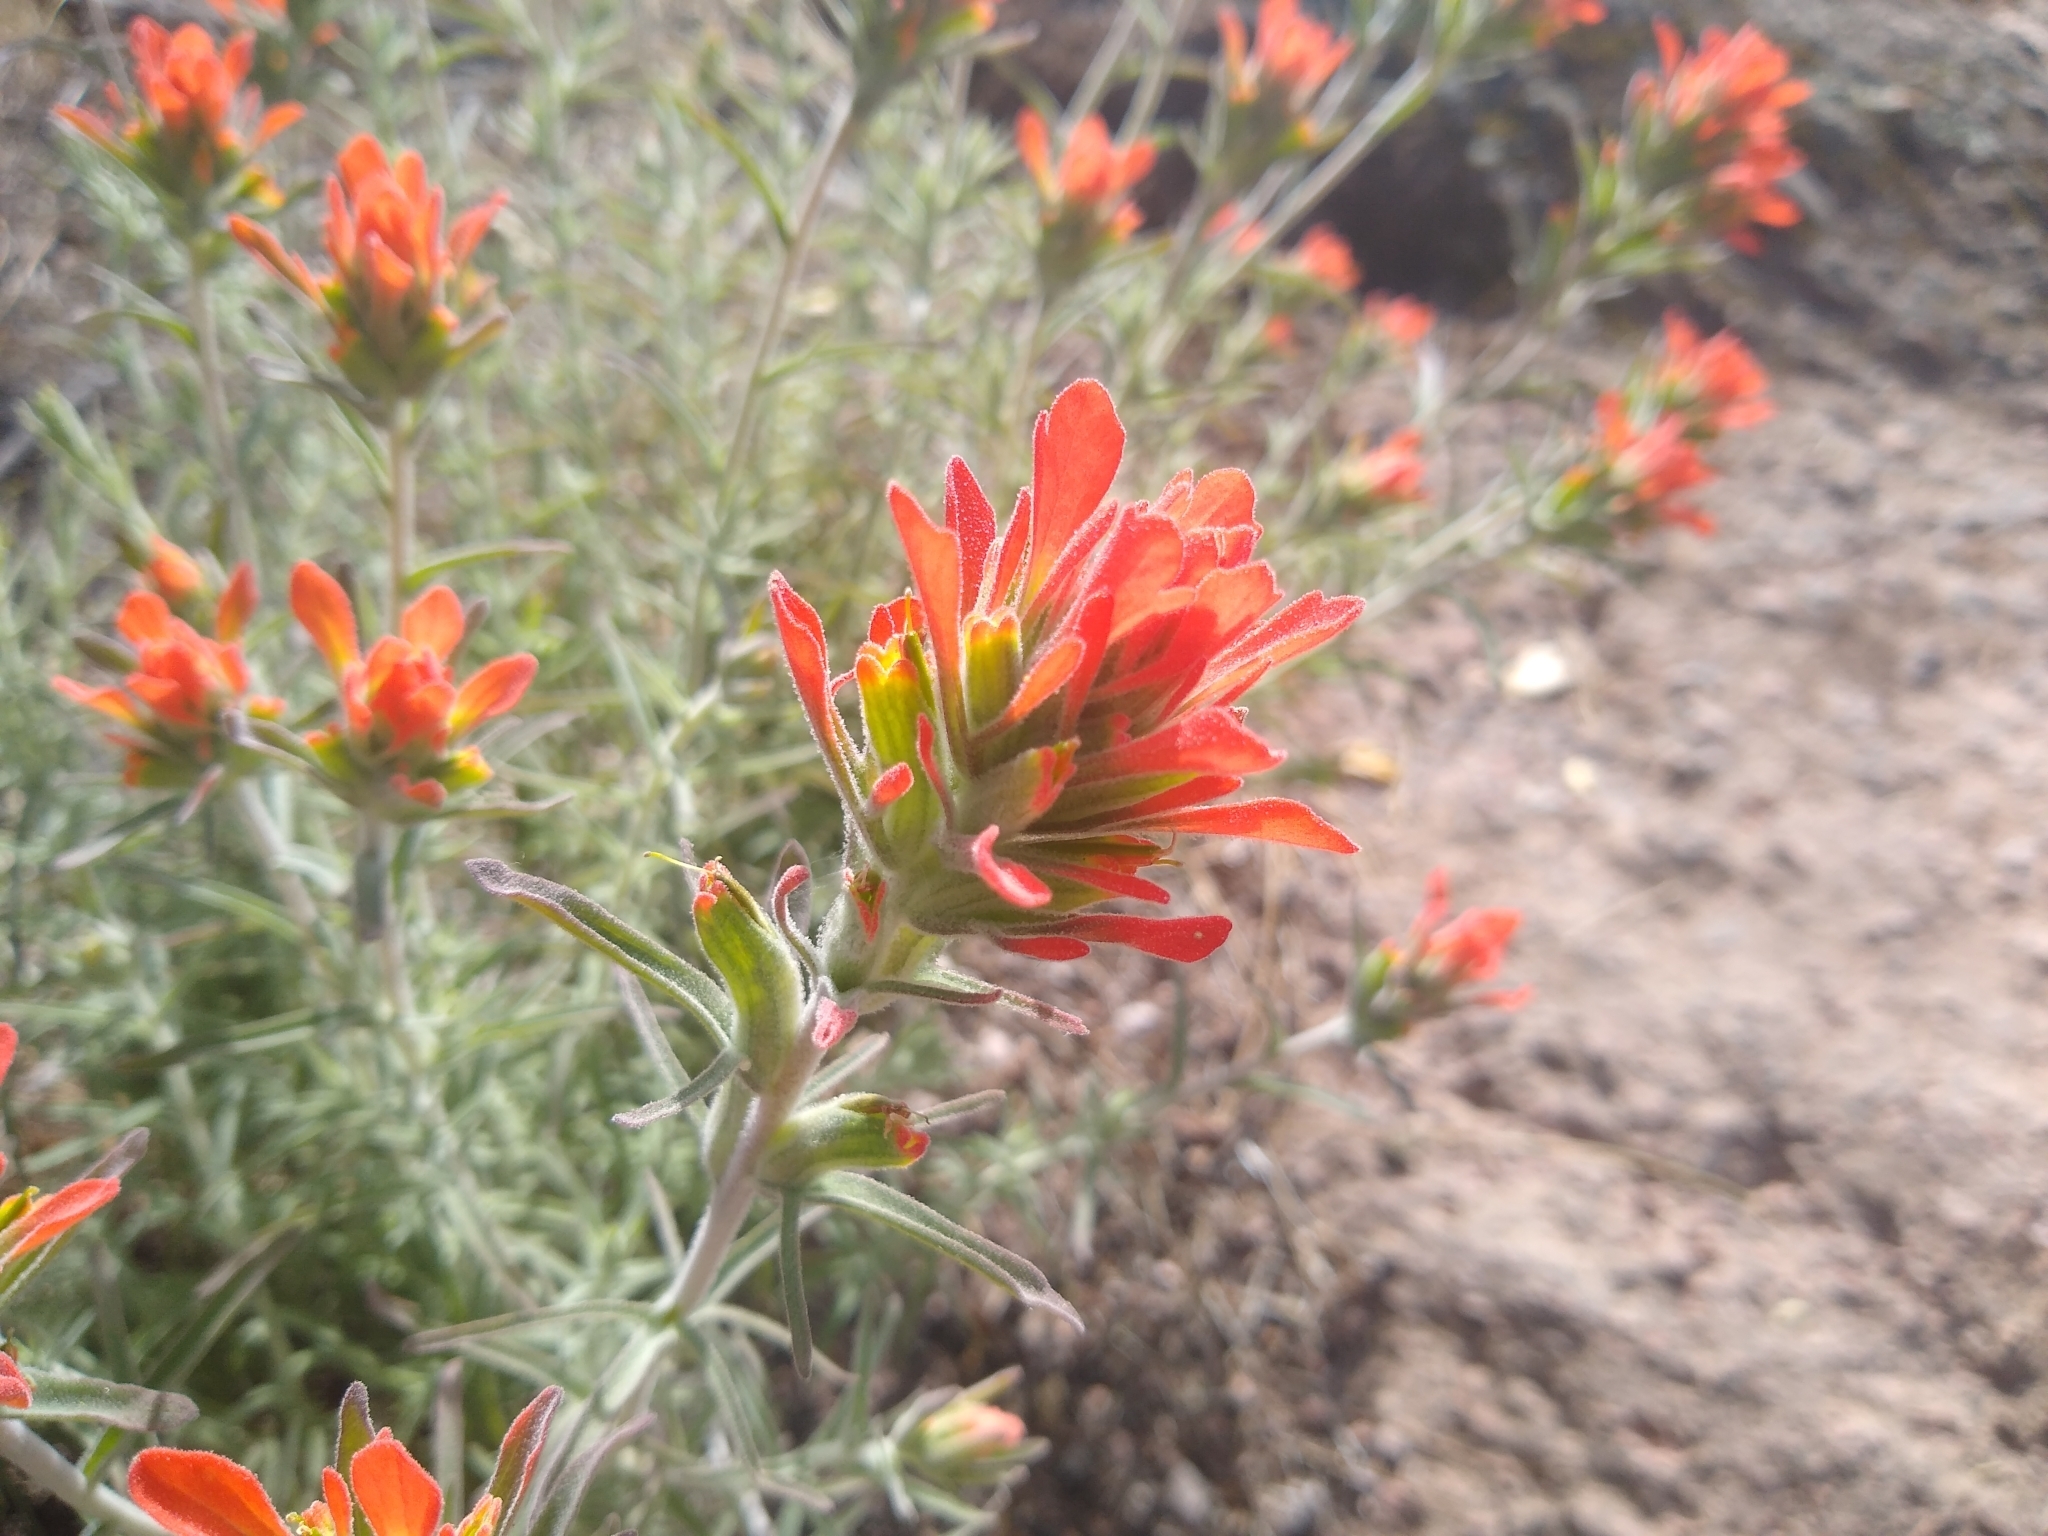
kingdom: Plantae
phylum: Tracheophyta
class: Magnoliopsida
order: Lamiales
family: Orobanchaceae
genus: Castilleja
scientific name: Castilleja foliolosa
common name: Woolly indian paintbrush
